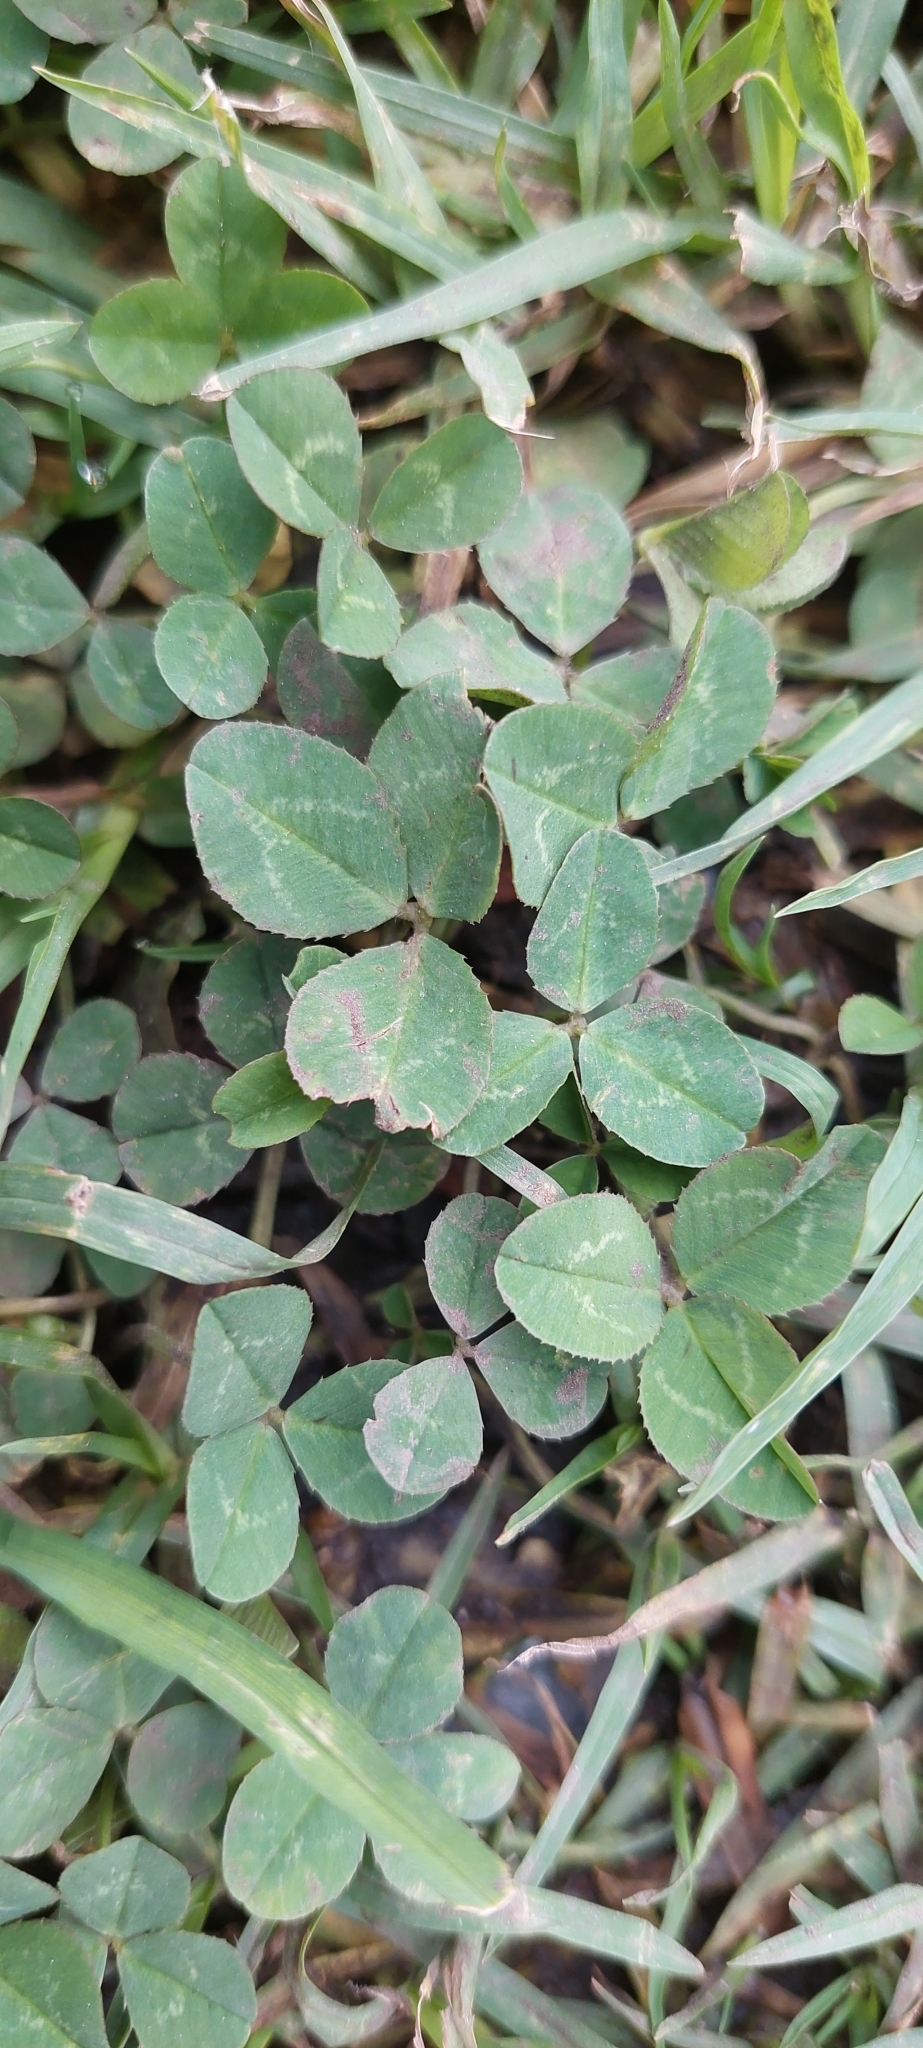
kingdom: Plantae
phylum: Tracheophyta
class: Magnoliopsida
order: Fabales
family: Fabaceae
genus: Trifolium
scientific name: Trifolium repens
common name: White clover
